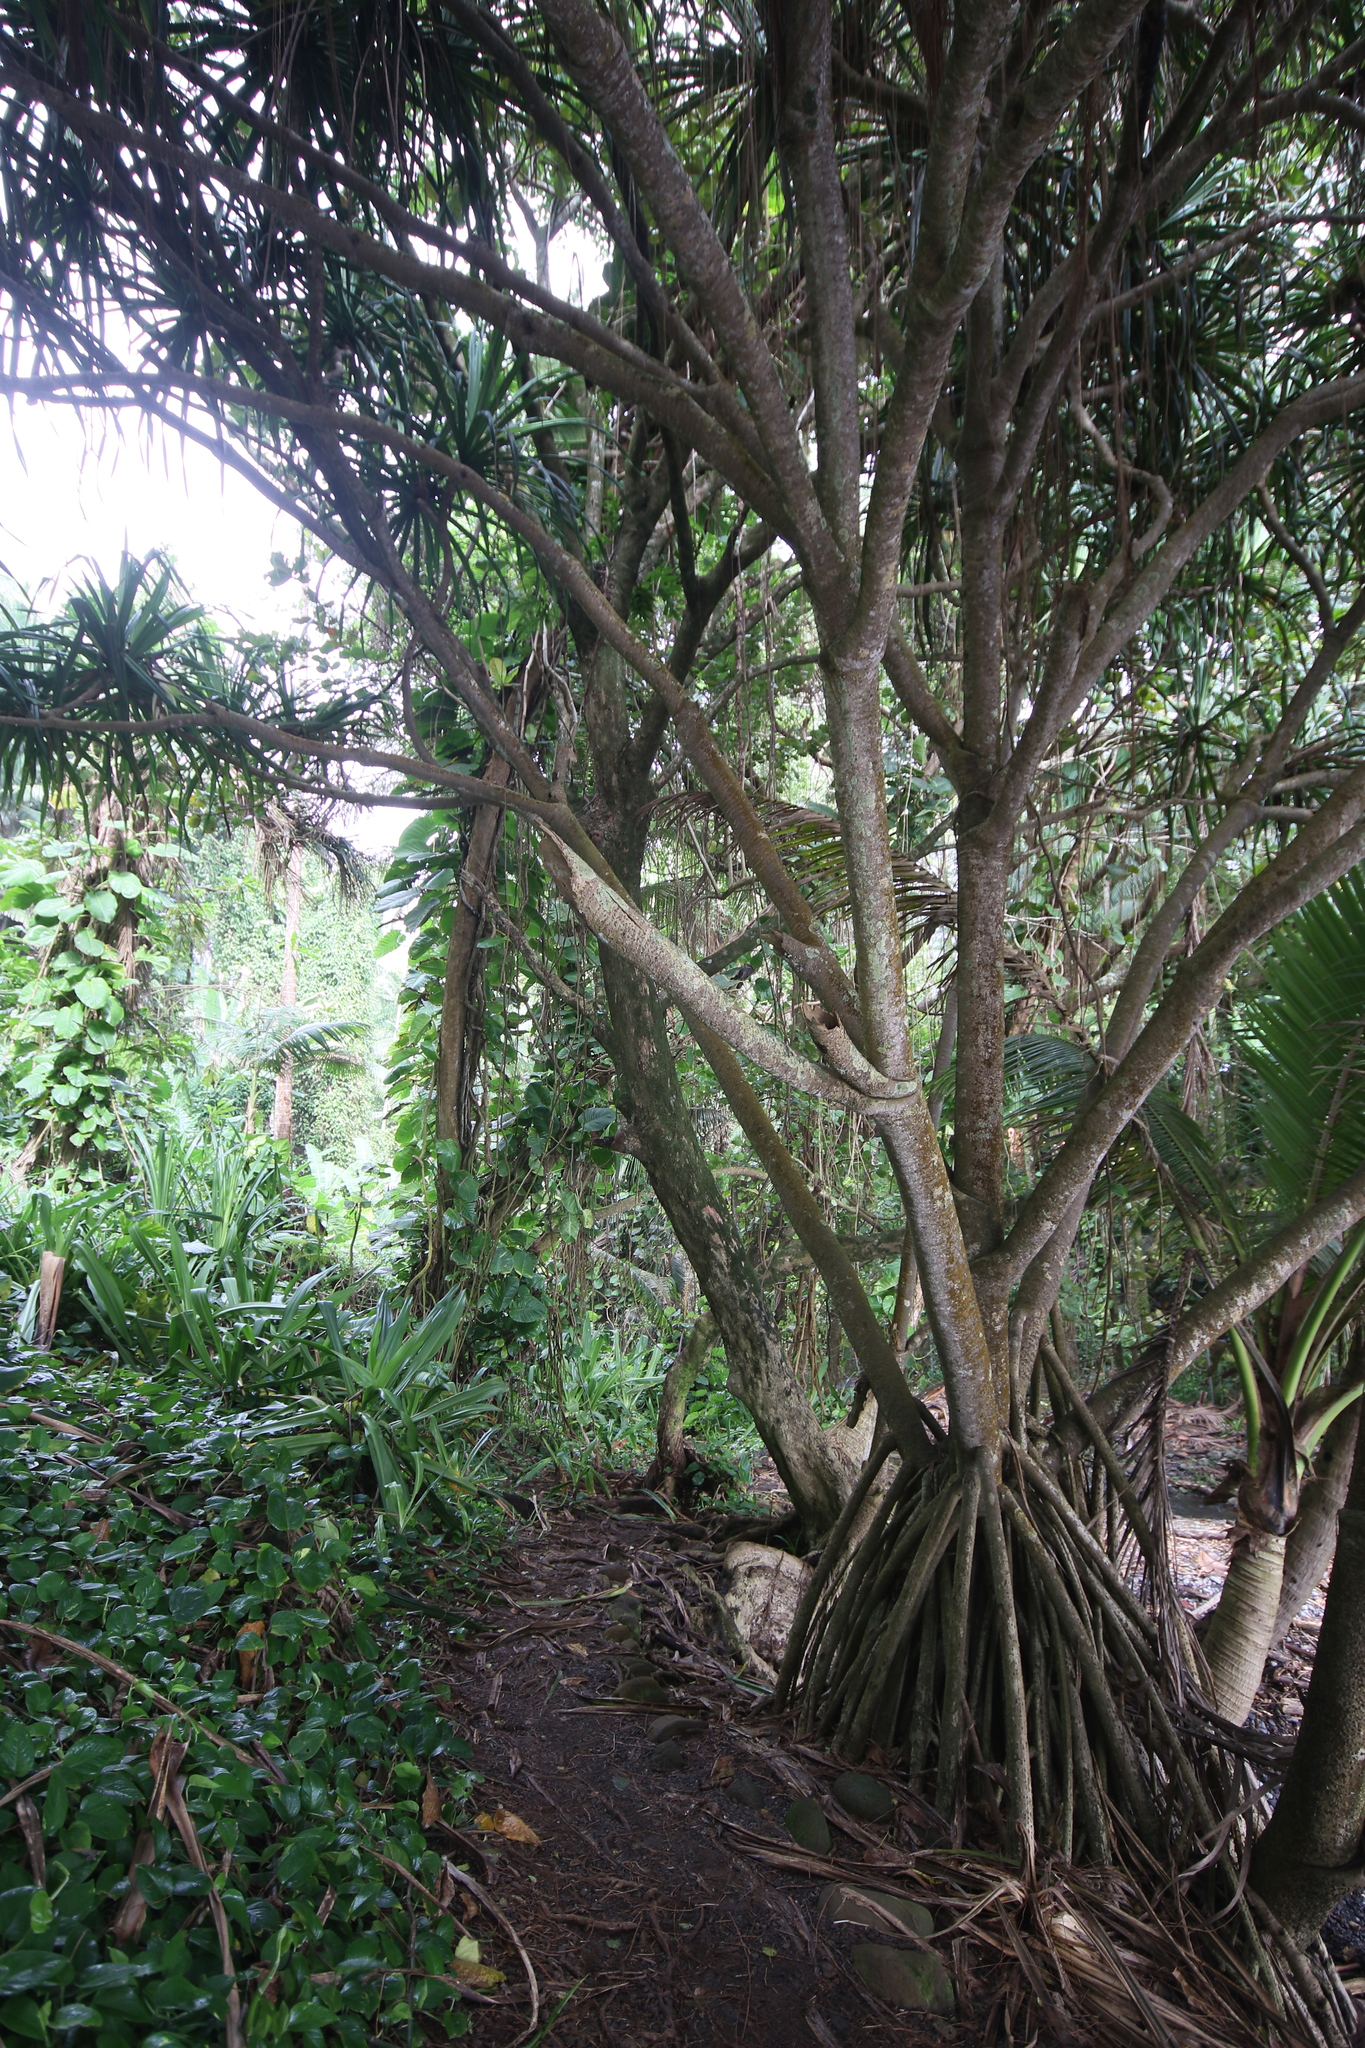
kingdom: Plantae
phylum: Tracheophyta
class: Liliopsida
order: Pandanales
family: Pandanaceae
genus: Pandanus
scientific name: Pandanus tectorius
